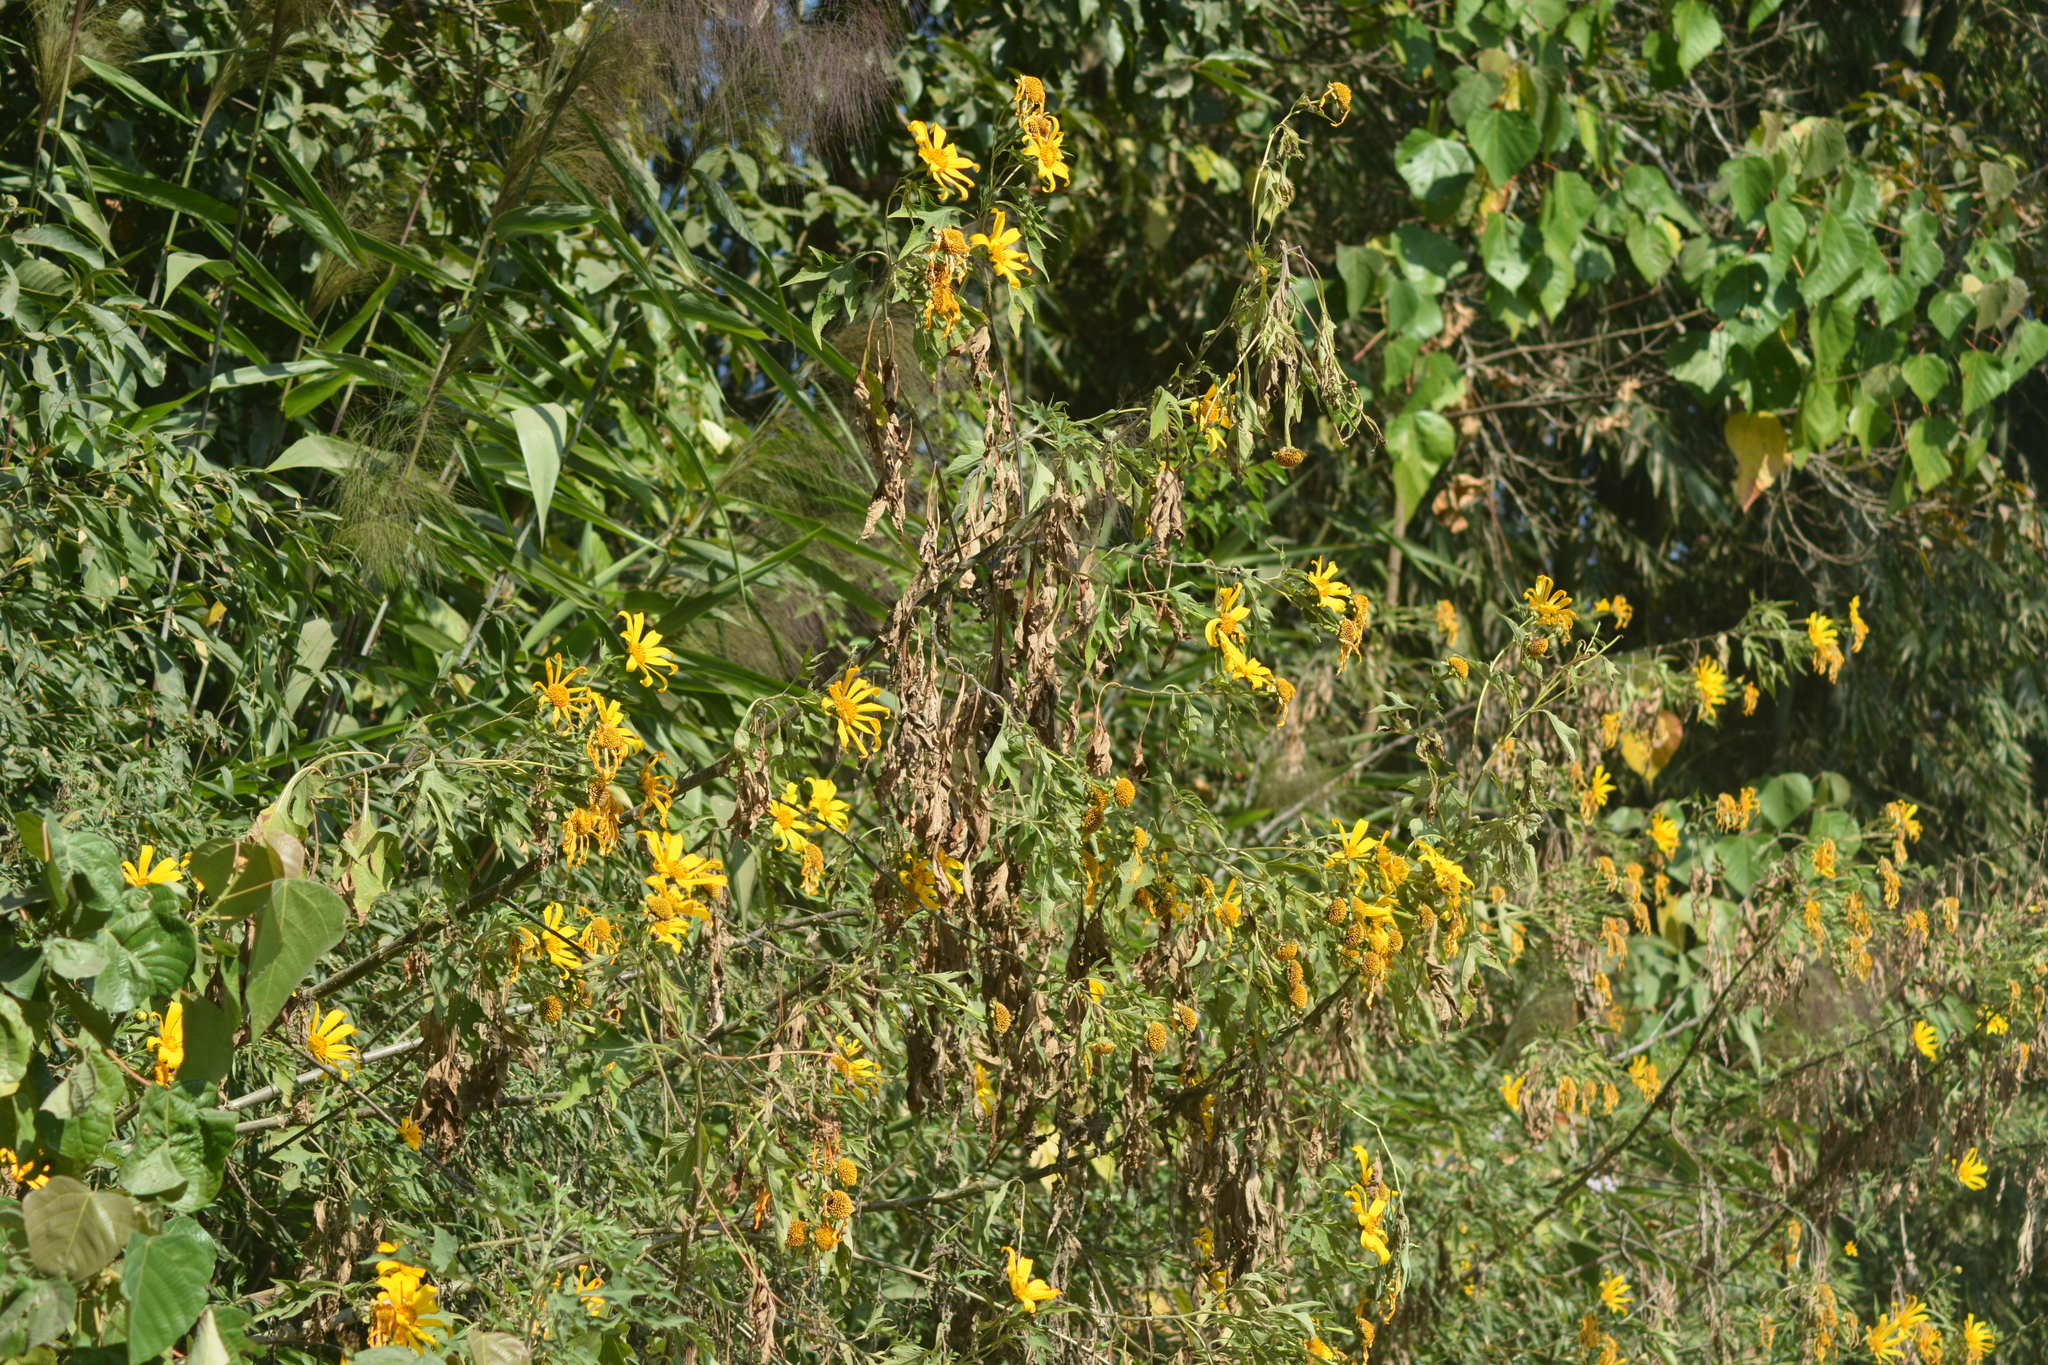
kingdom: Plantae
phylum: Tracheophyta
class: Magnoliopsida
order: Asterales
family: Asteraceae
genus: Tithonia
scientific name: Tithonia diversifolia
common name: Tree marigold
